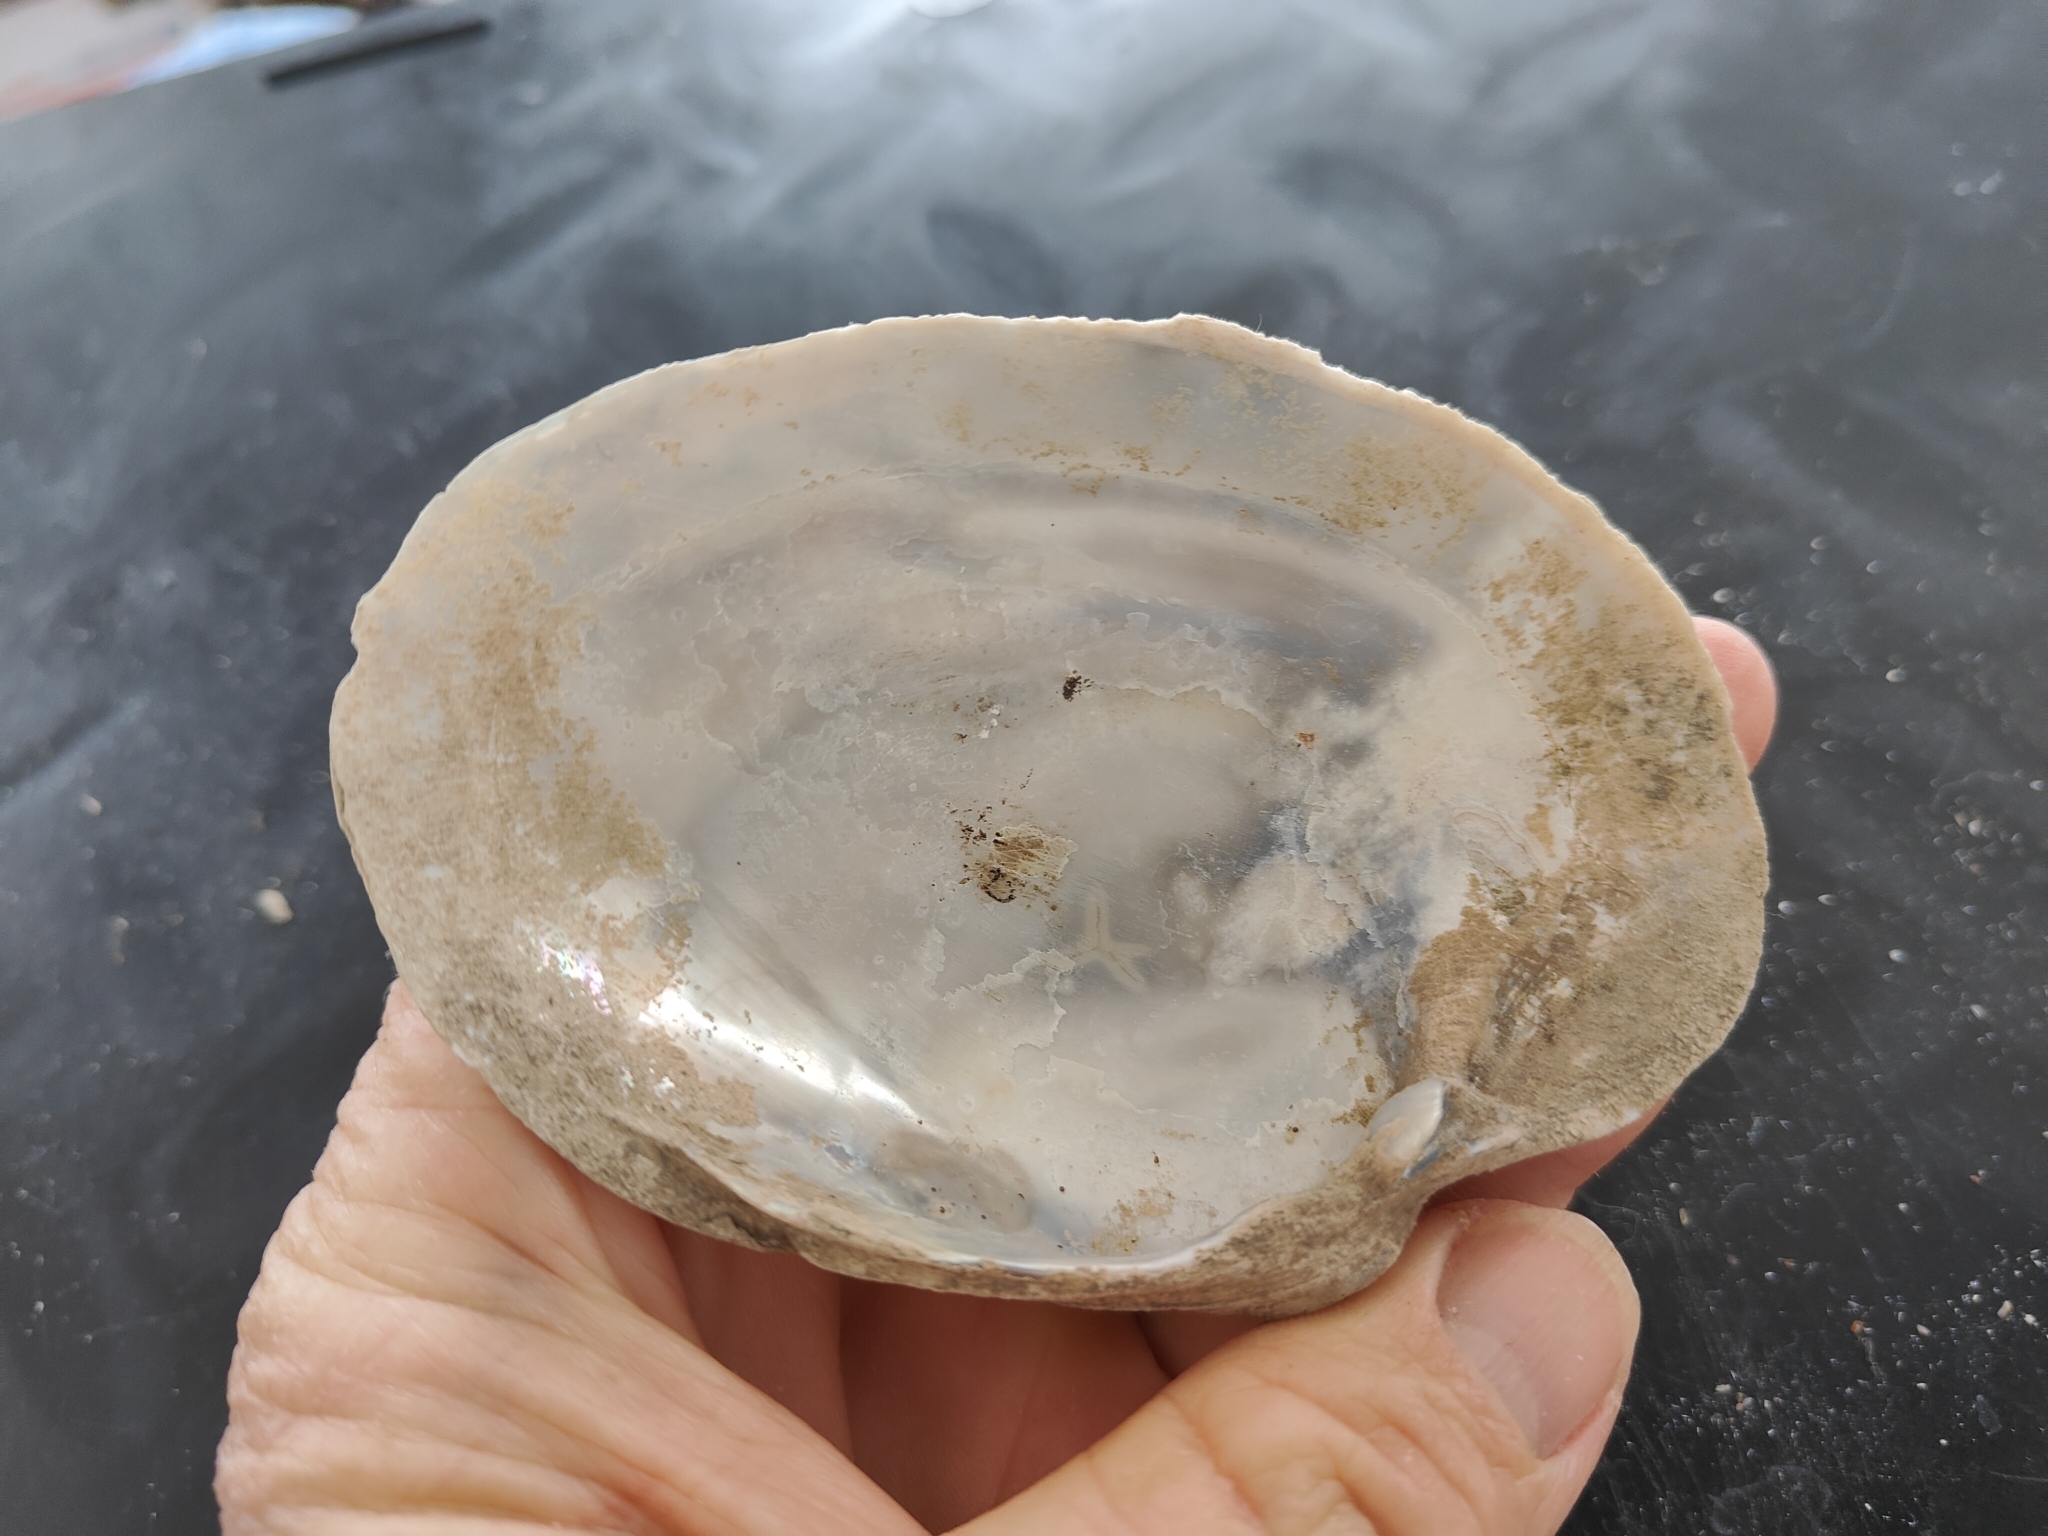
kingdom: Animalia
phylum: Mollusca
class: Bivalvia
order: Unionida
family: Unionidae
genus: Lampsilis
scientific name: Lampsilis cardium
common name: Plain pocketbook
